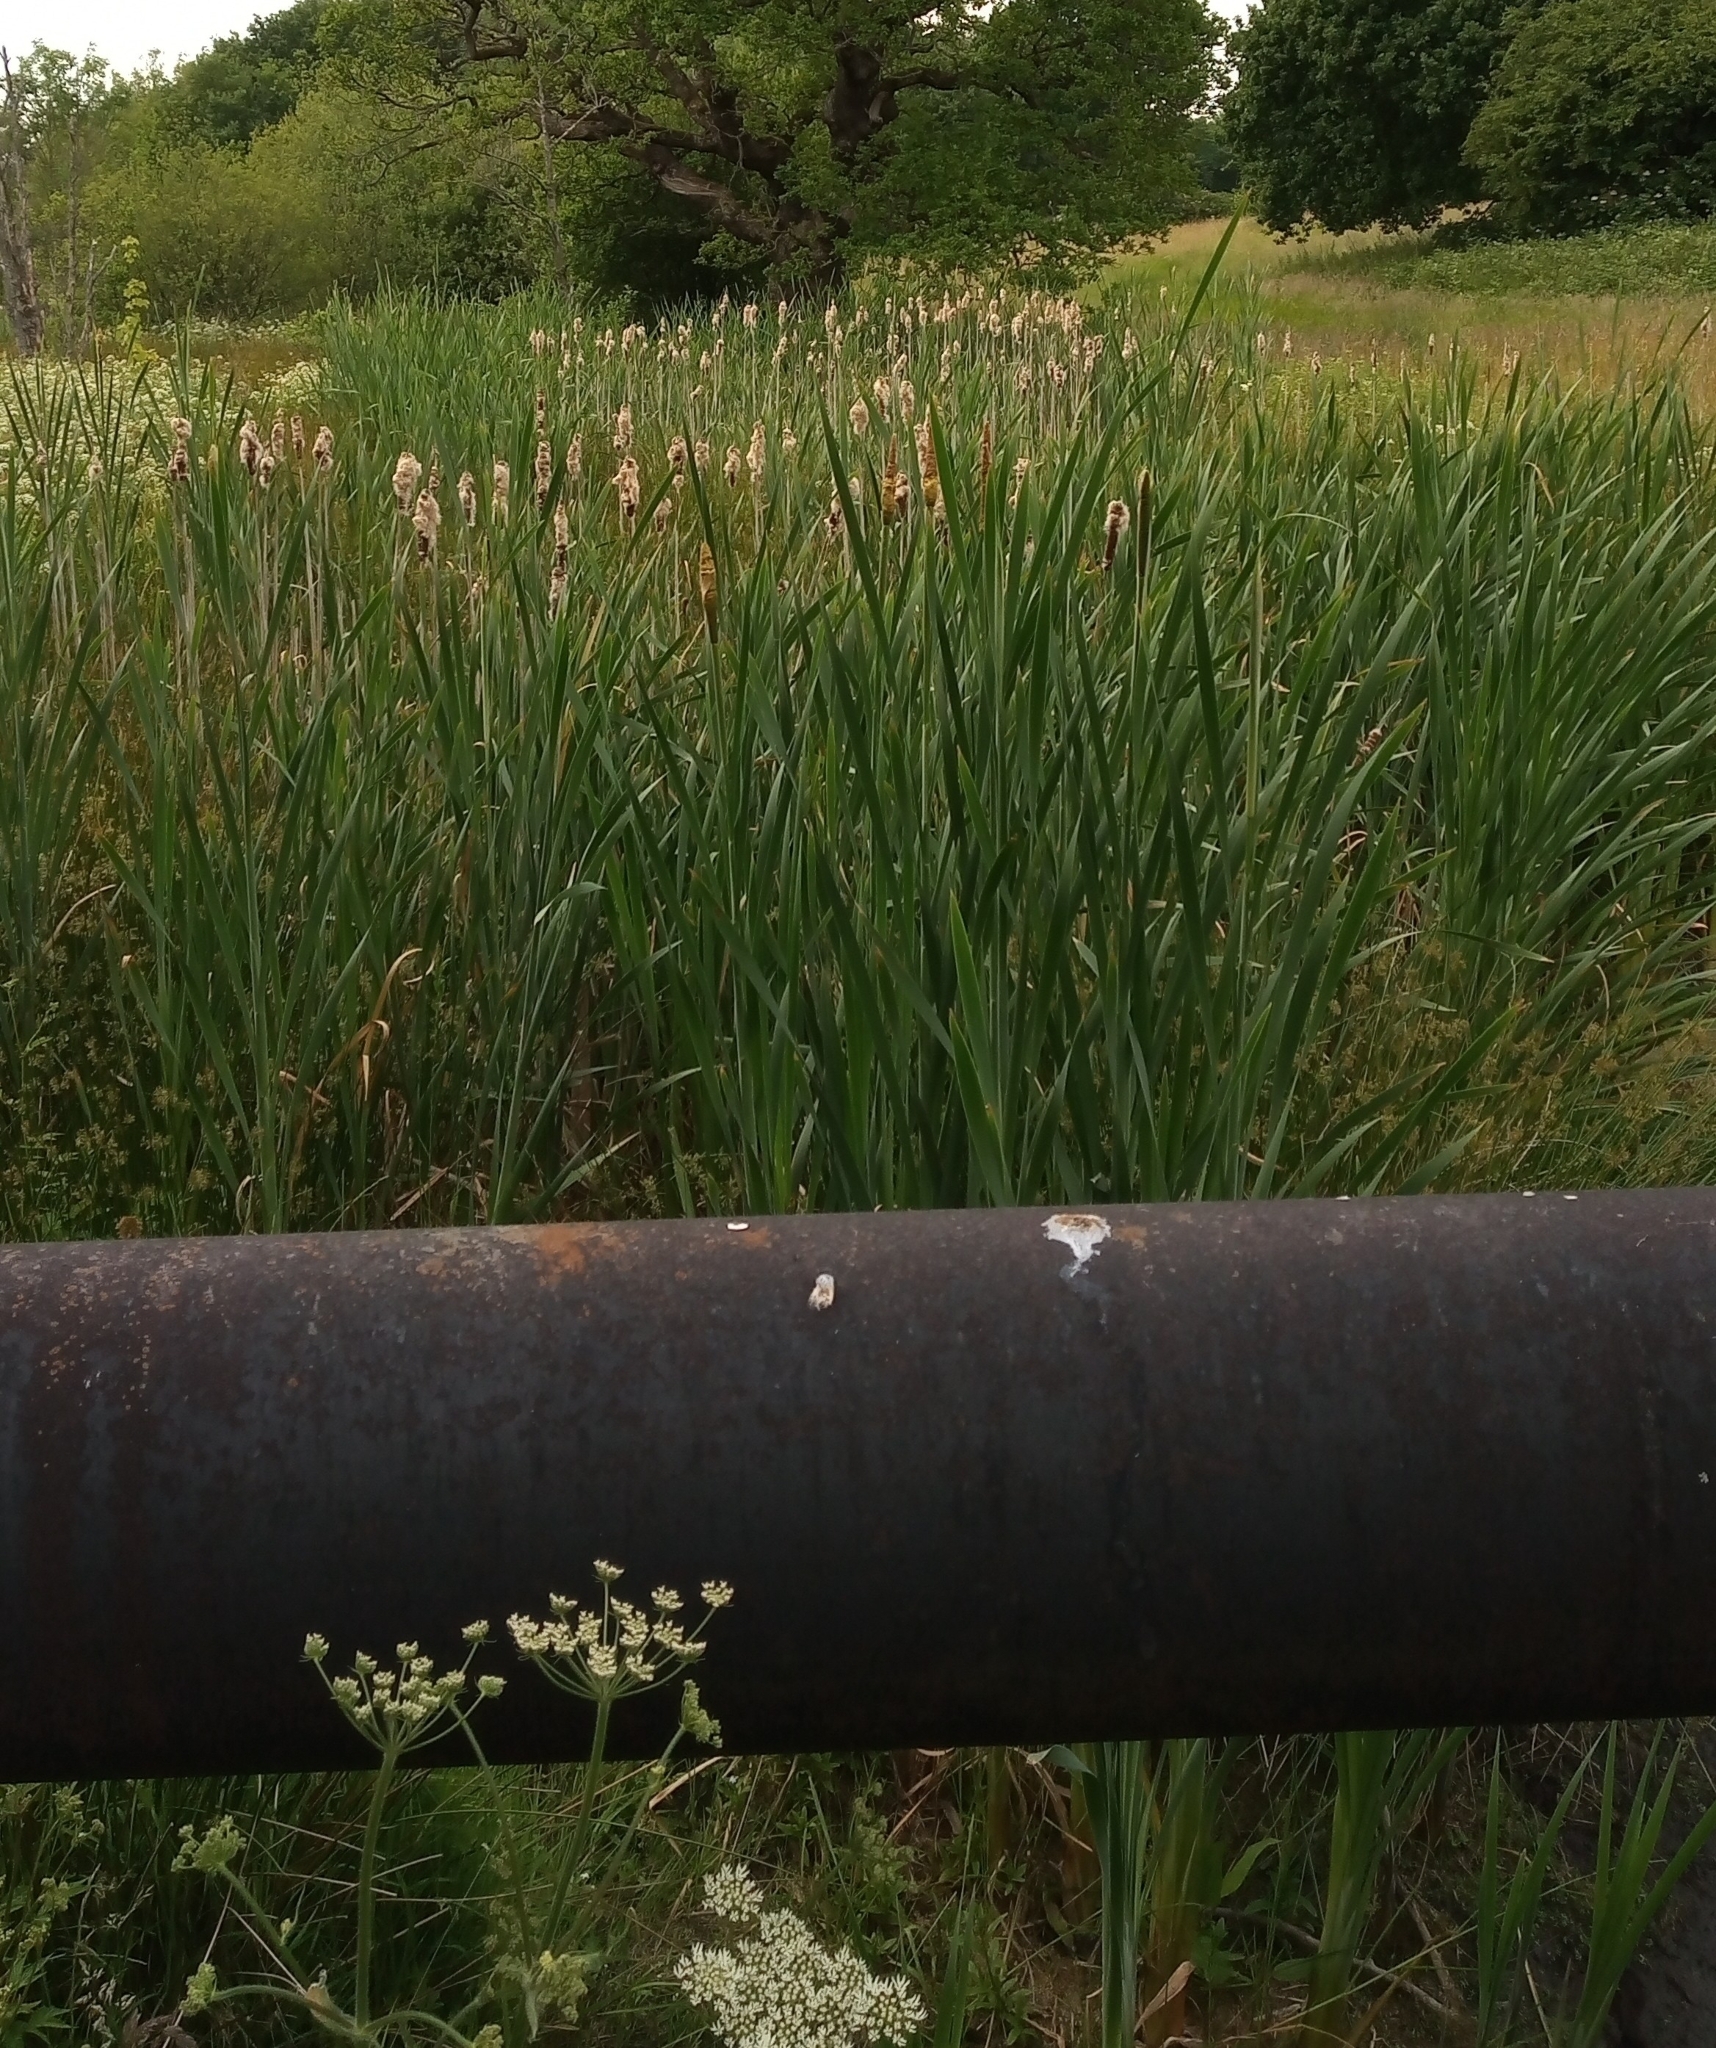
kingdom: Plantae
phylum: Tracheophyta
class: Liliopsida
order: Poales
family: Typhaceae
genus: Typha
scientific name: Typha latifolia
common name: Broadleaf cattail
